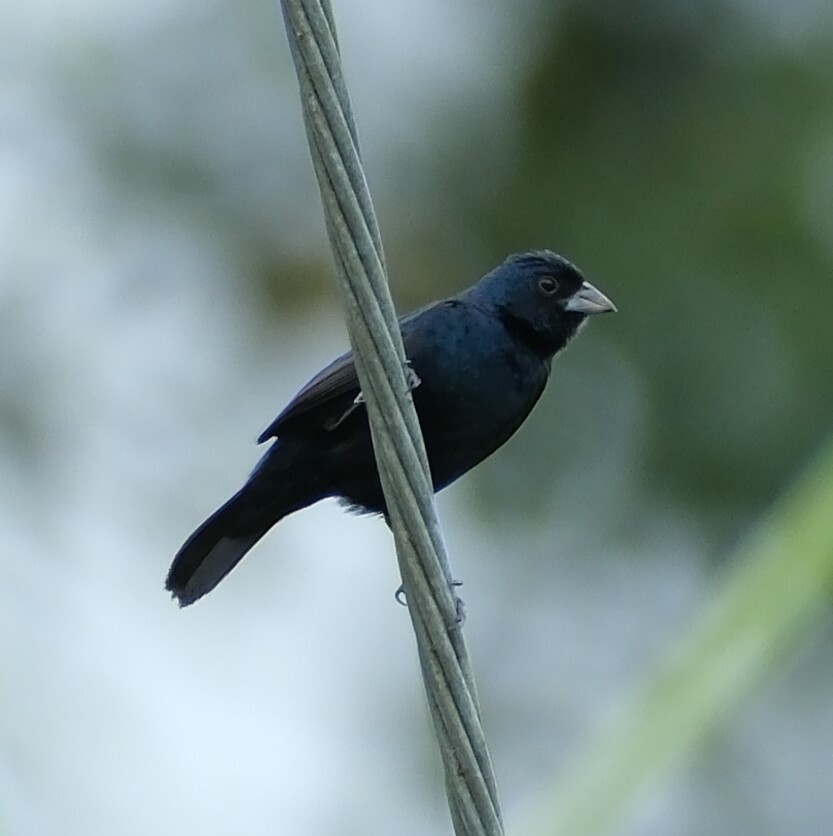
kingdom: Animalia
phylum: Chordata
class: Aves
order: Passeriformes
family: Thraupidae
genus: Volatinia
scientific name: Volatinia jacarina
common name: Blue-black grassquit
